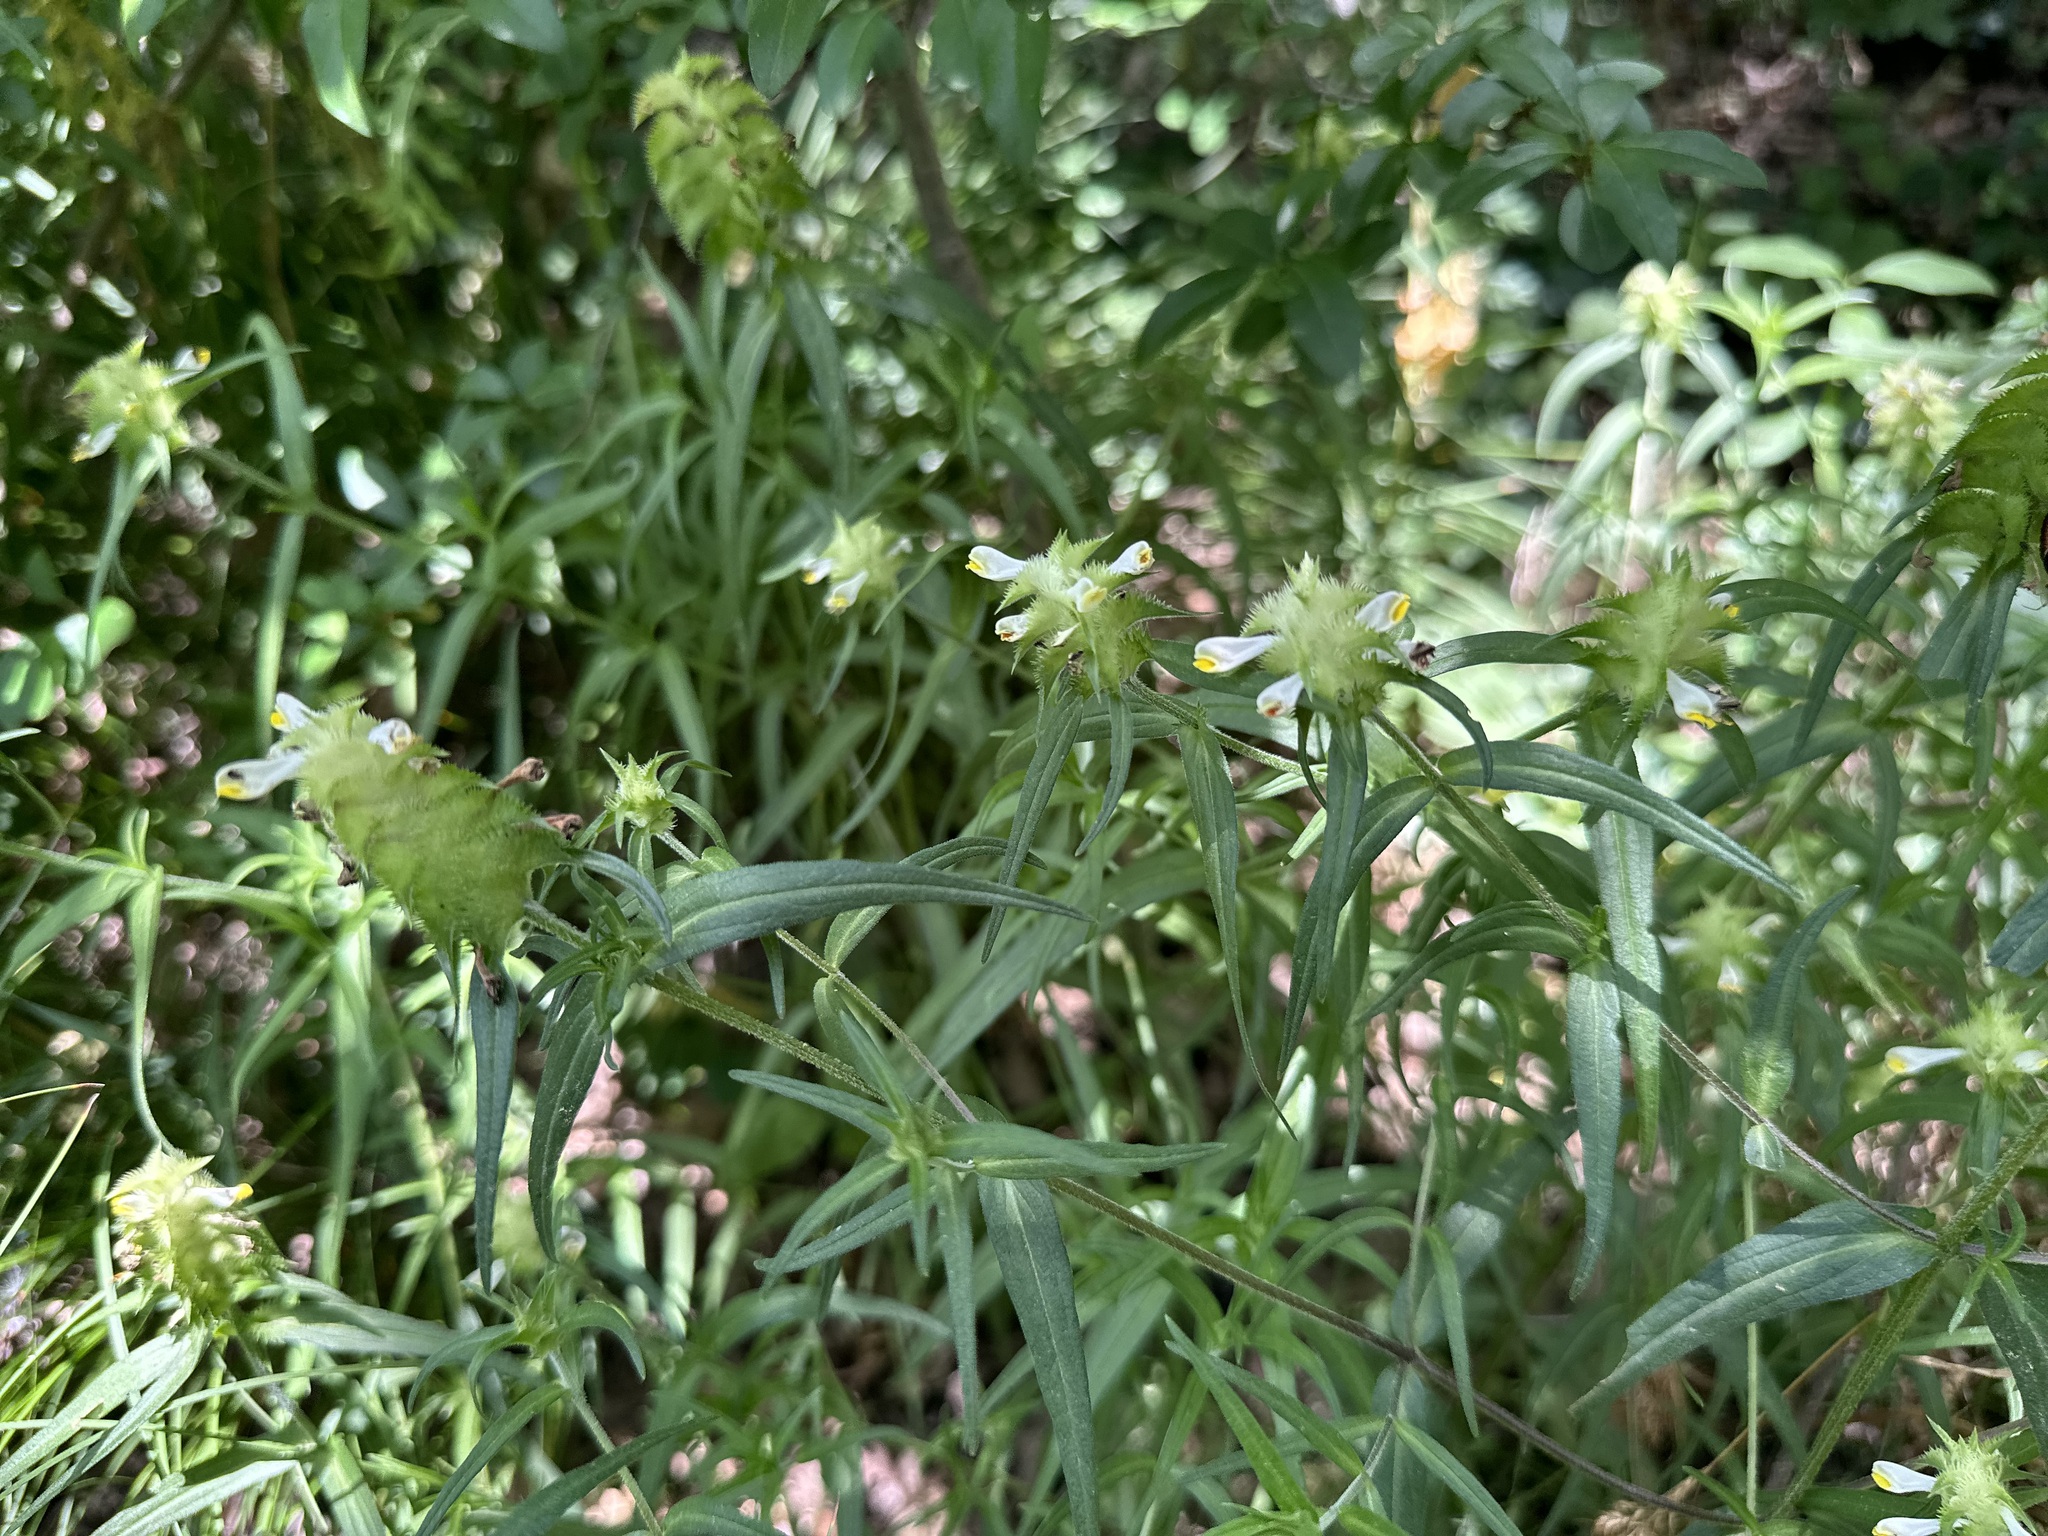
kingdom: Plantae
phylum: Tracheophyta
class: Magnoliopsida
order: Lamiales
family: Orobanchaceae
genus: Melampyrum
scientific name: Melampyrum cristatum
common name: Crested cow-wheat
